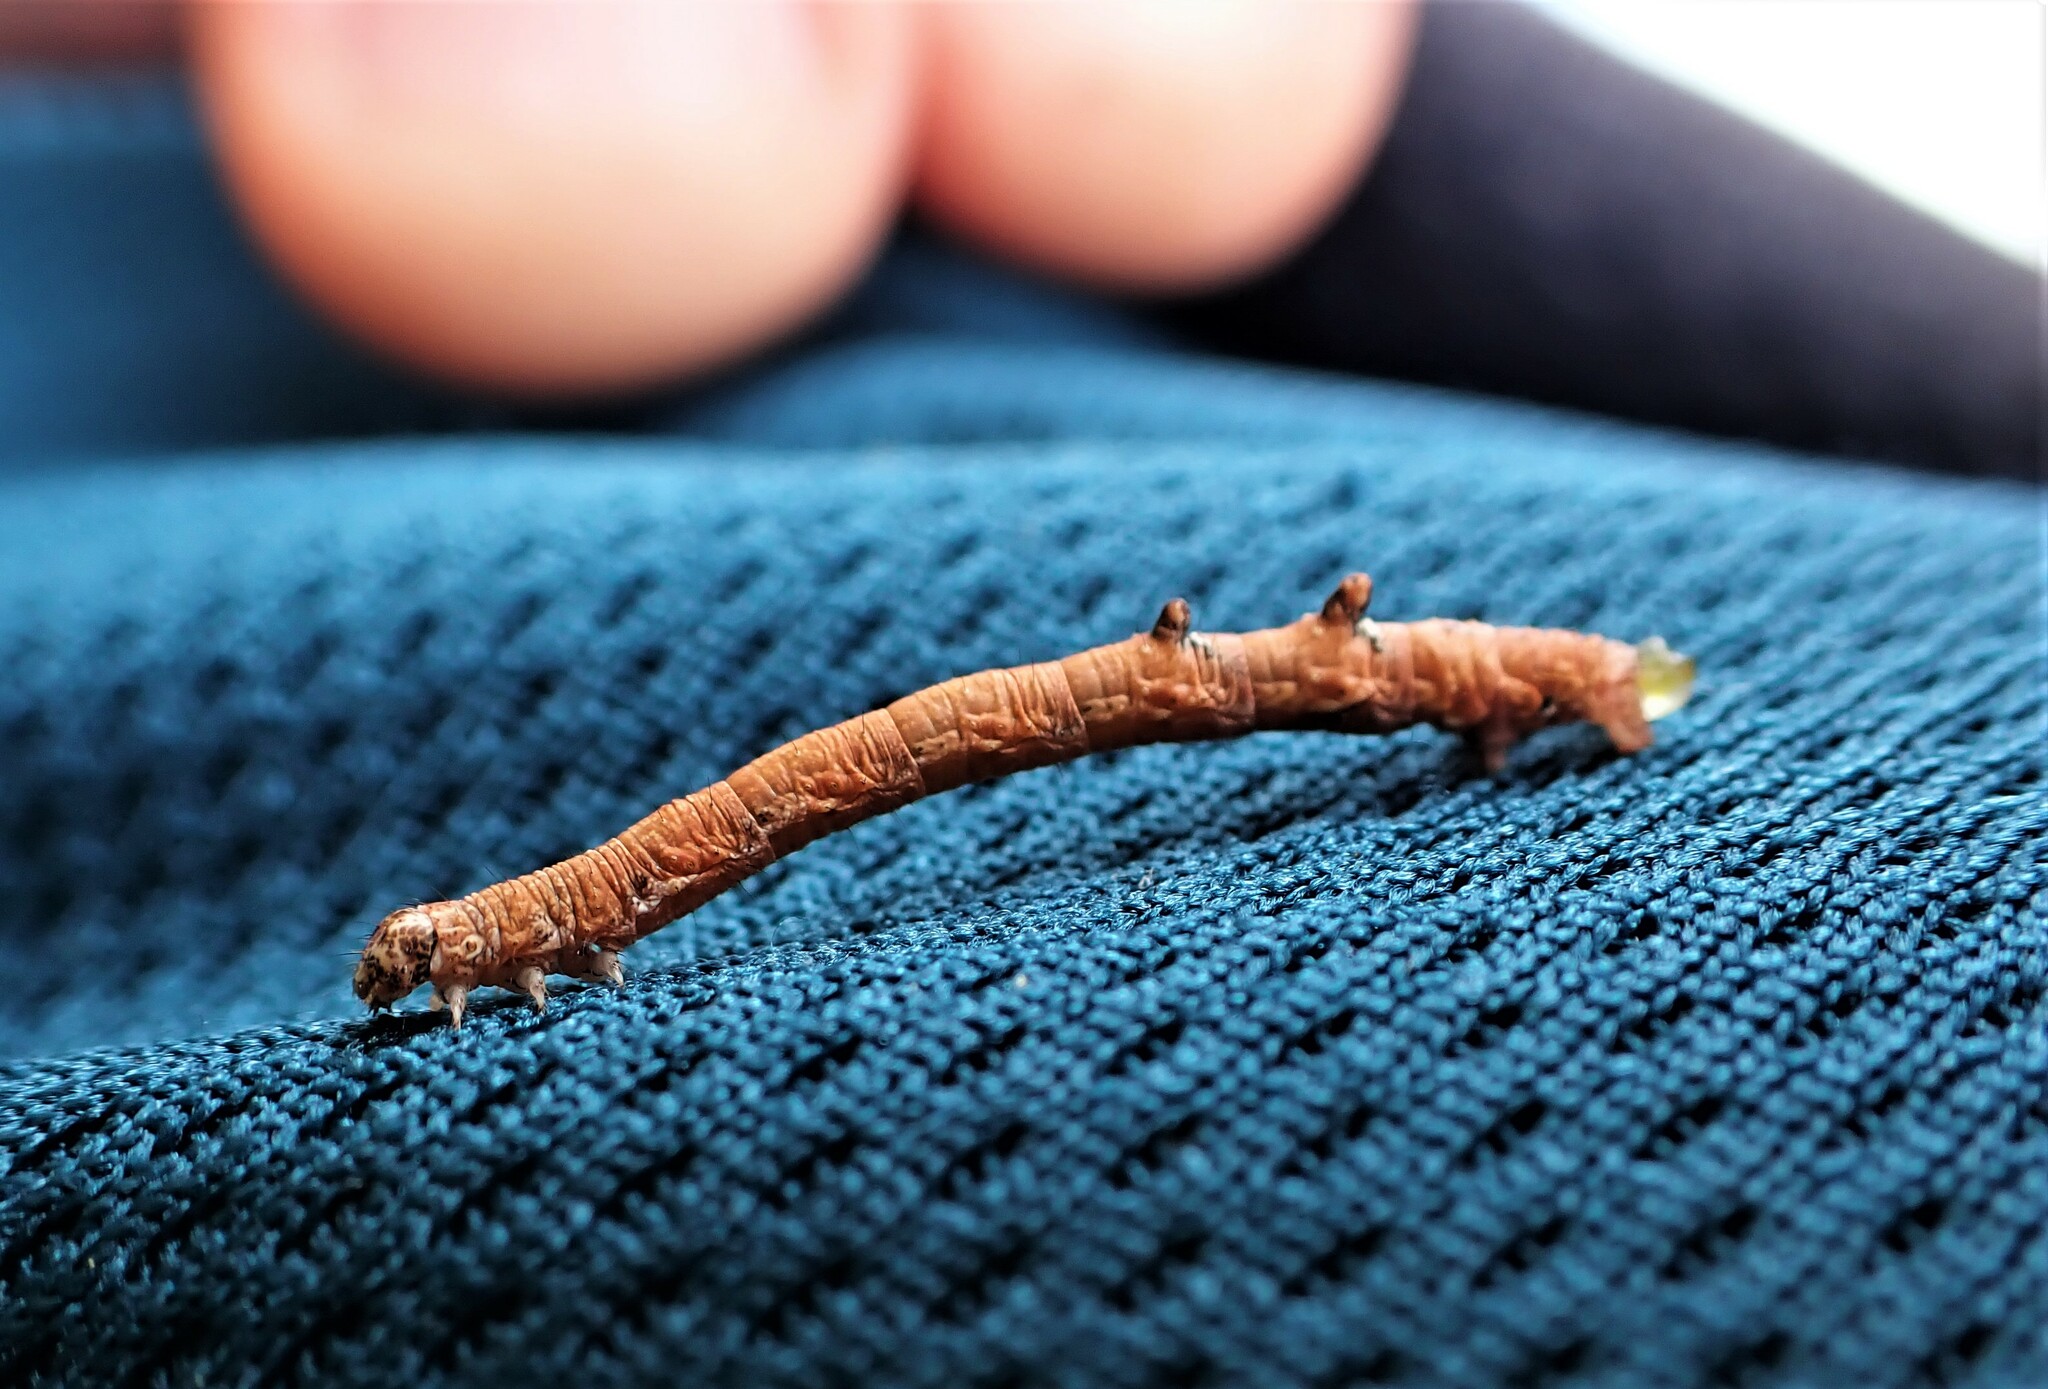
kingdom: Animalia
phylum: Arthropoda
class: Insecta
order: Lepidoptera
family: Geometridae
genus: Austrocidaria
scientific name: Austrocidaria gobiata
